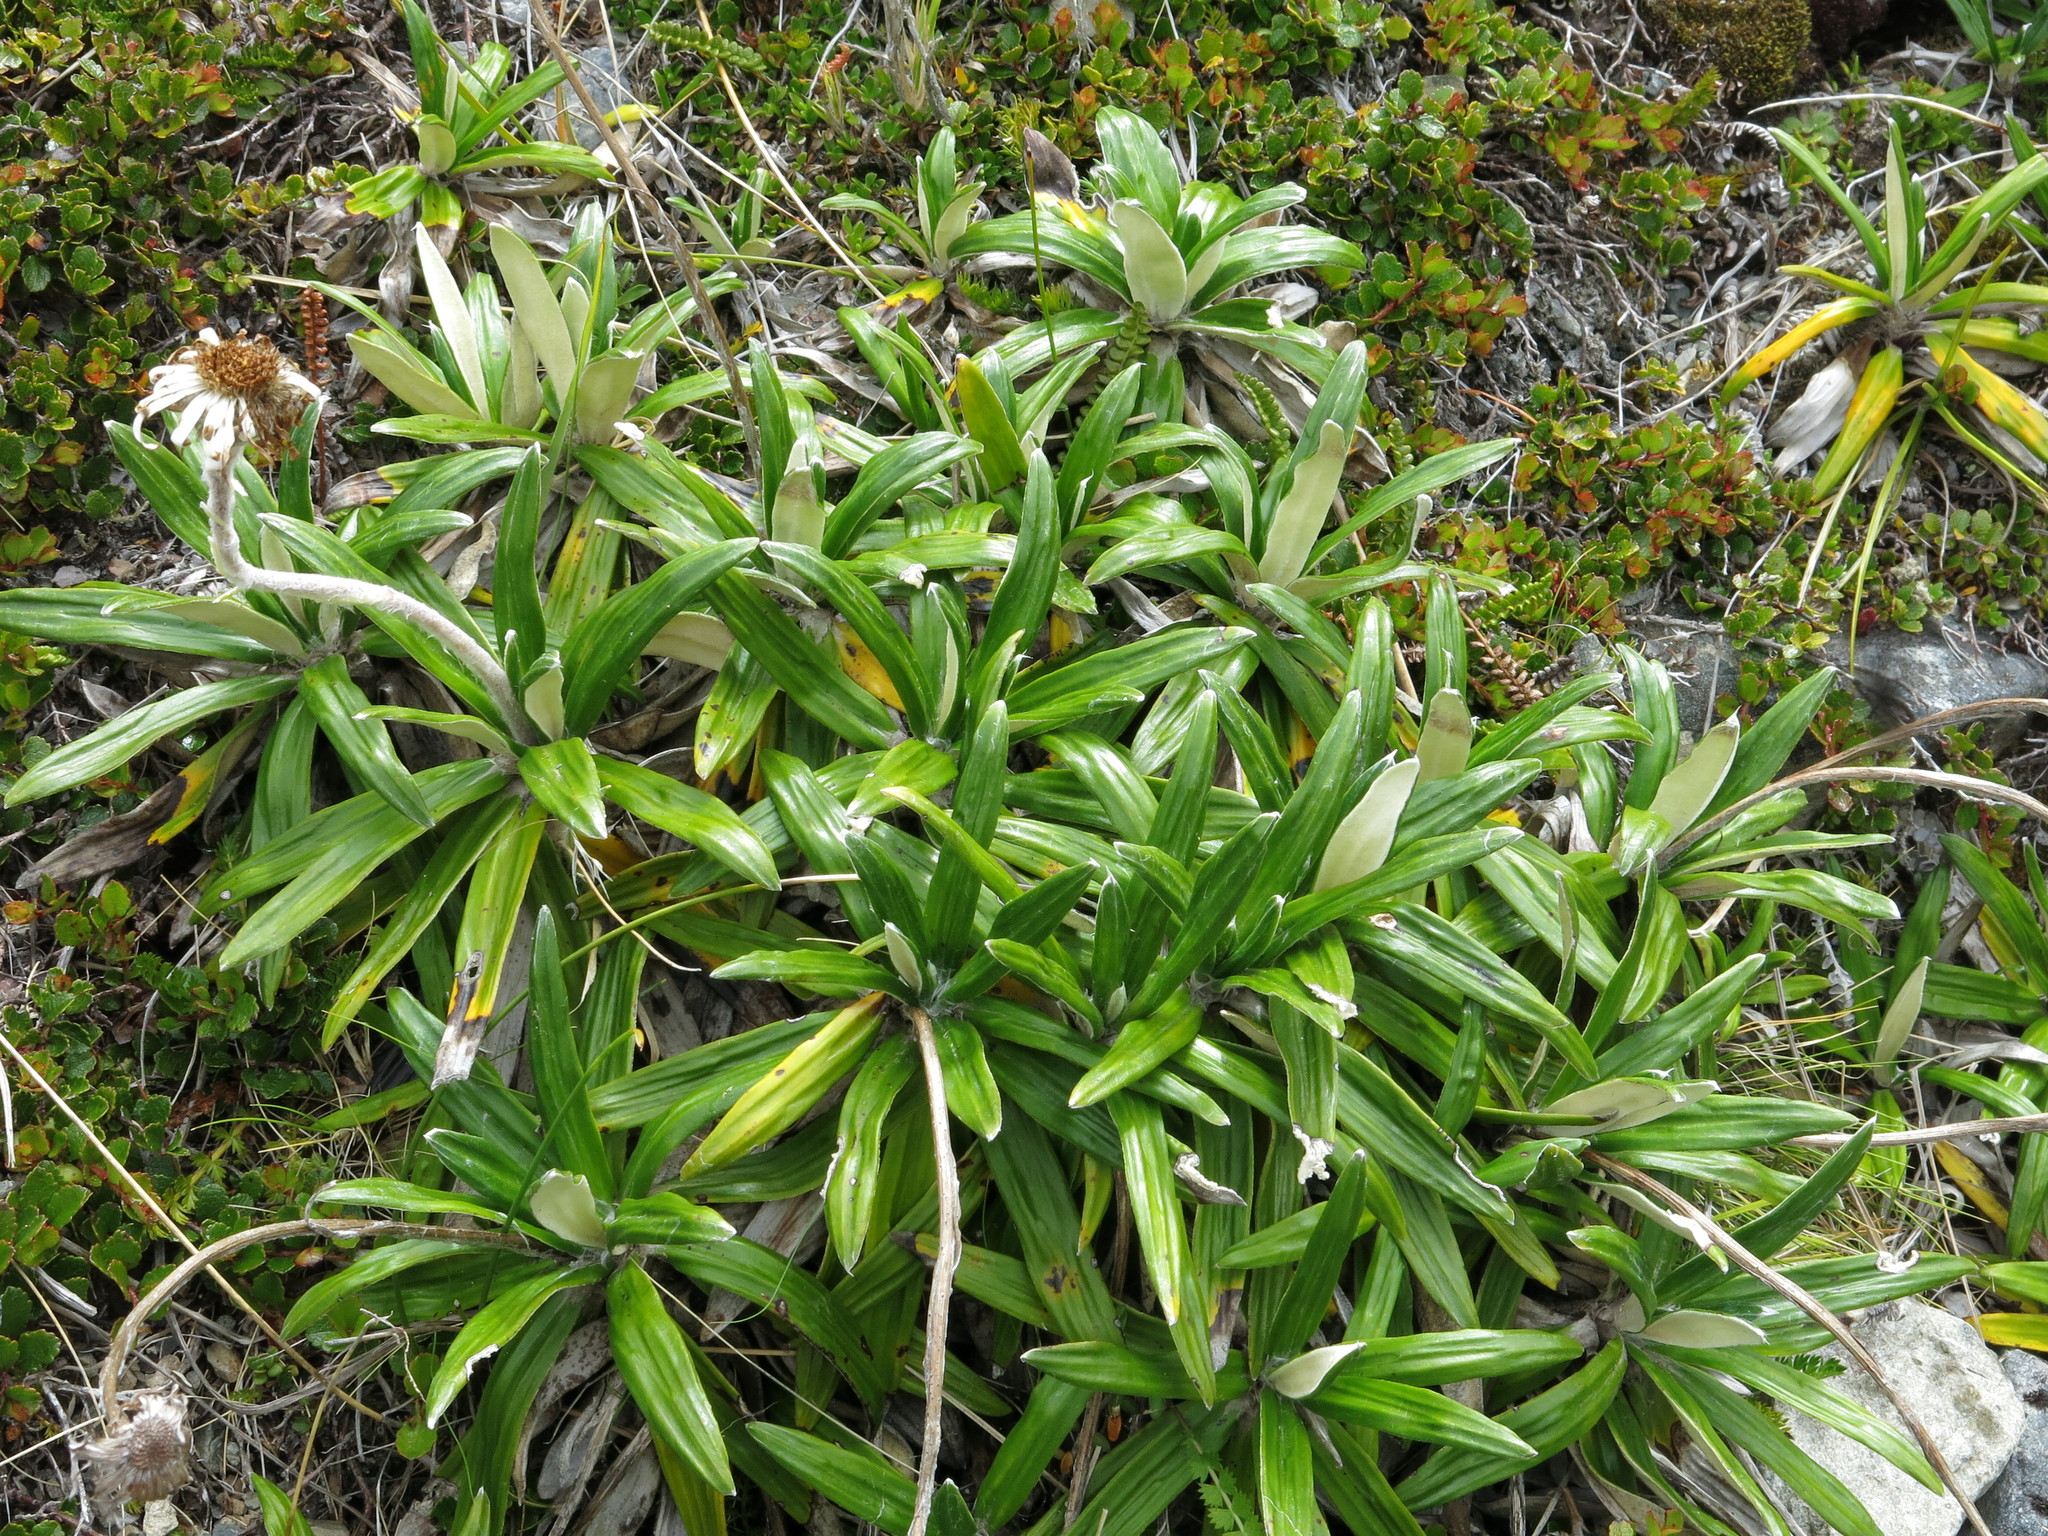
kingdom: Plantae
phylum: Tracheophyta
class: Magnoliopsida
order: Asterales
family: Asteraceae
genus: Celmisia
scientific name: Celmisia spectabilis
